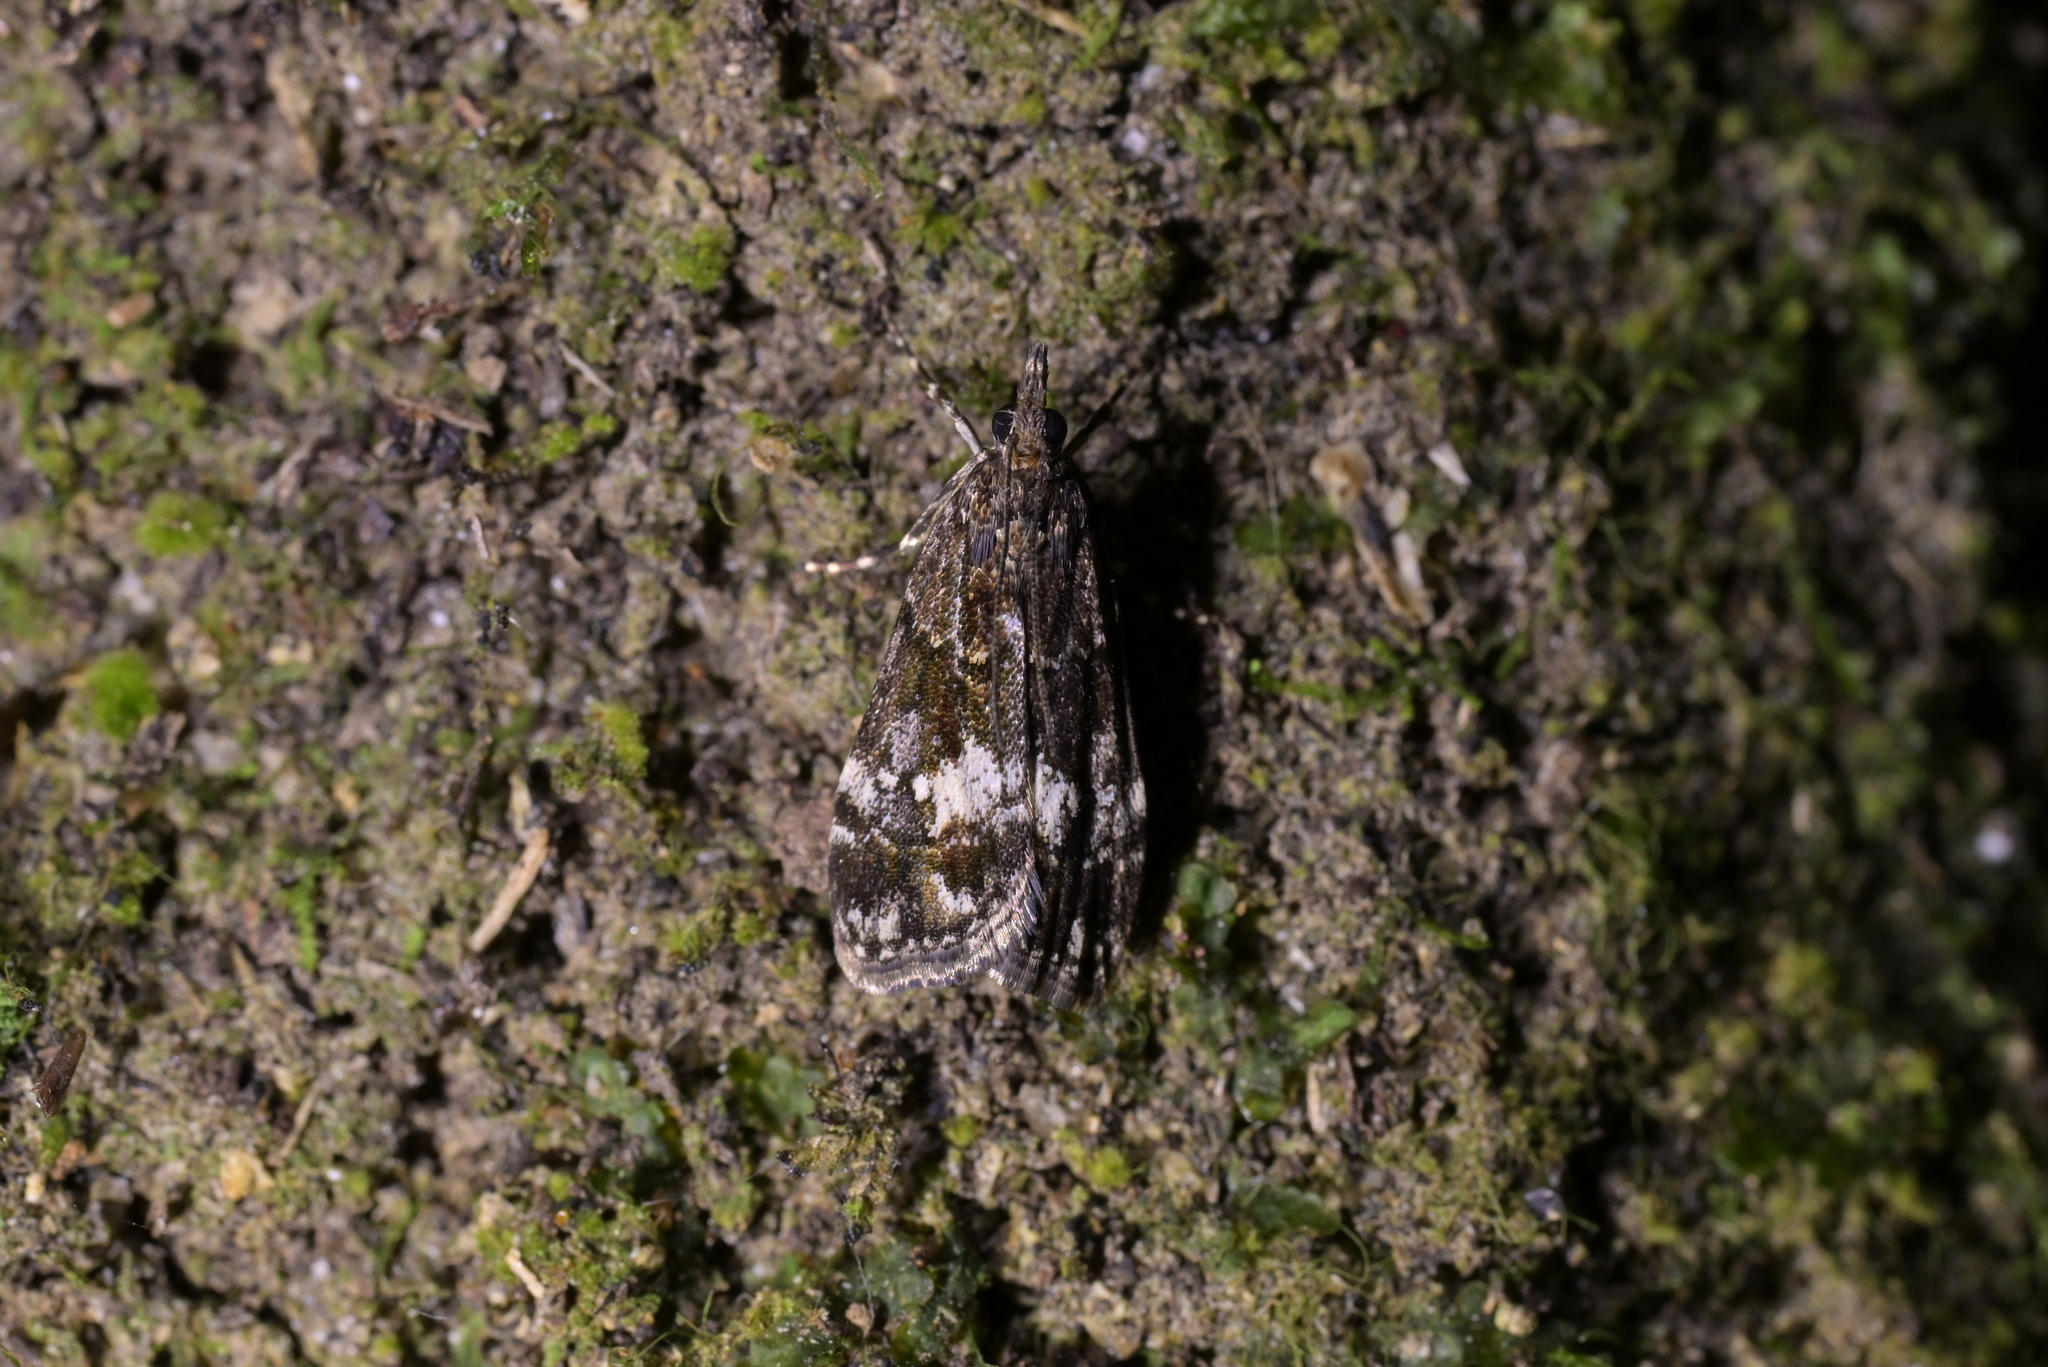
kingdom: Animalia
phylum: Arthropoda
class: Insecta
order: Lepidoptera
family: Crambidae
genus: Eudonia
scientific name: Eudonia dinodes
